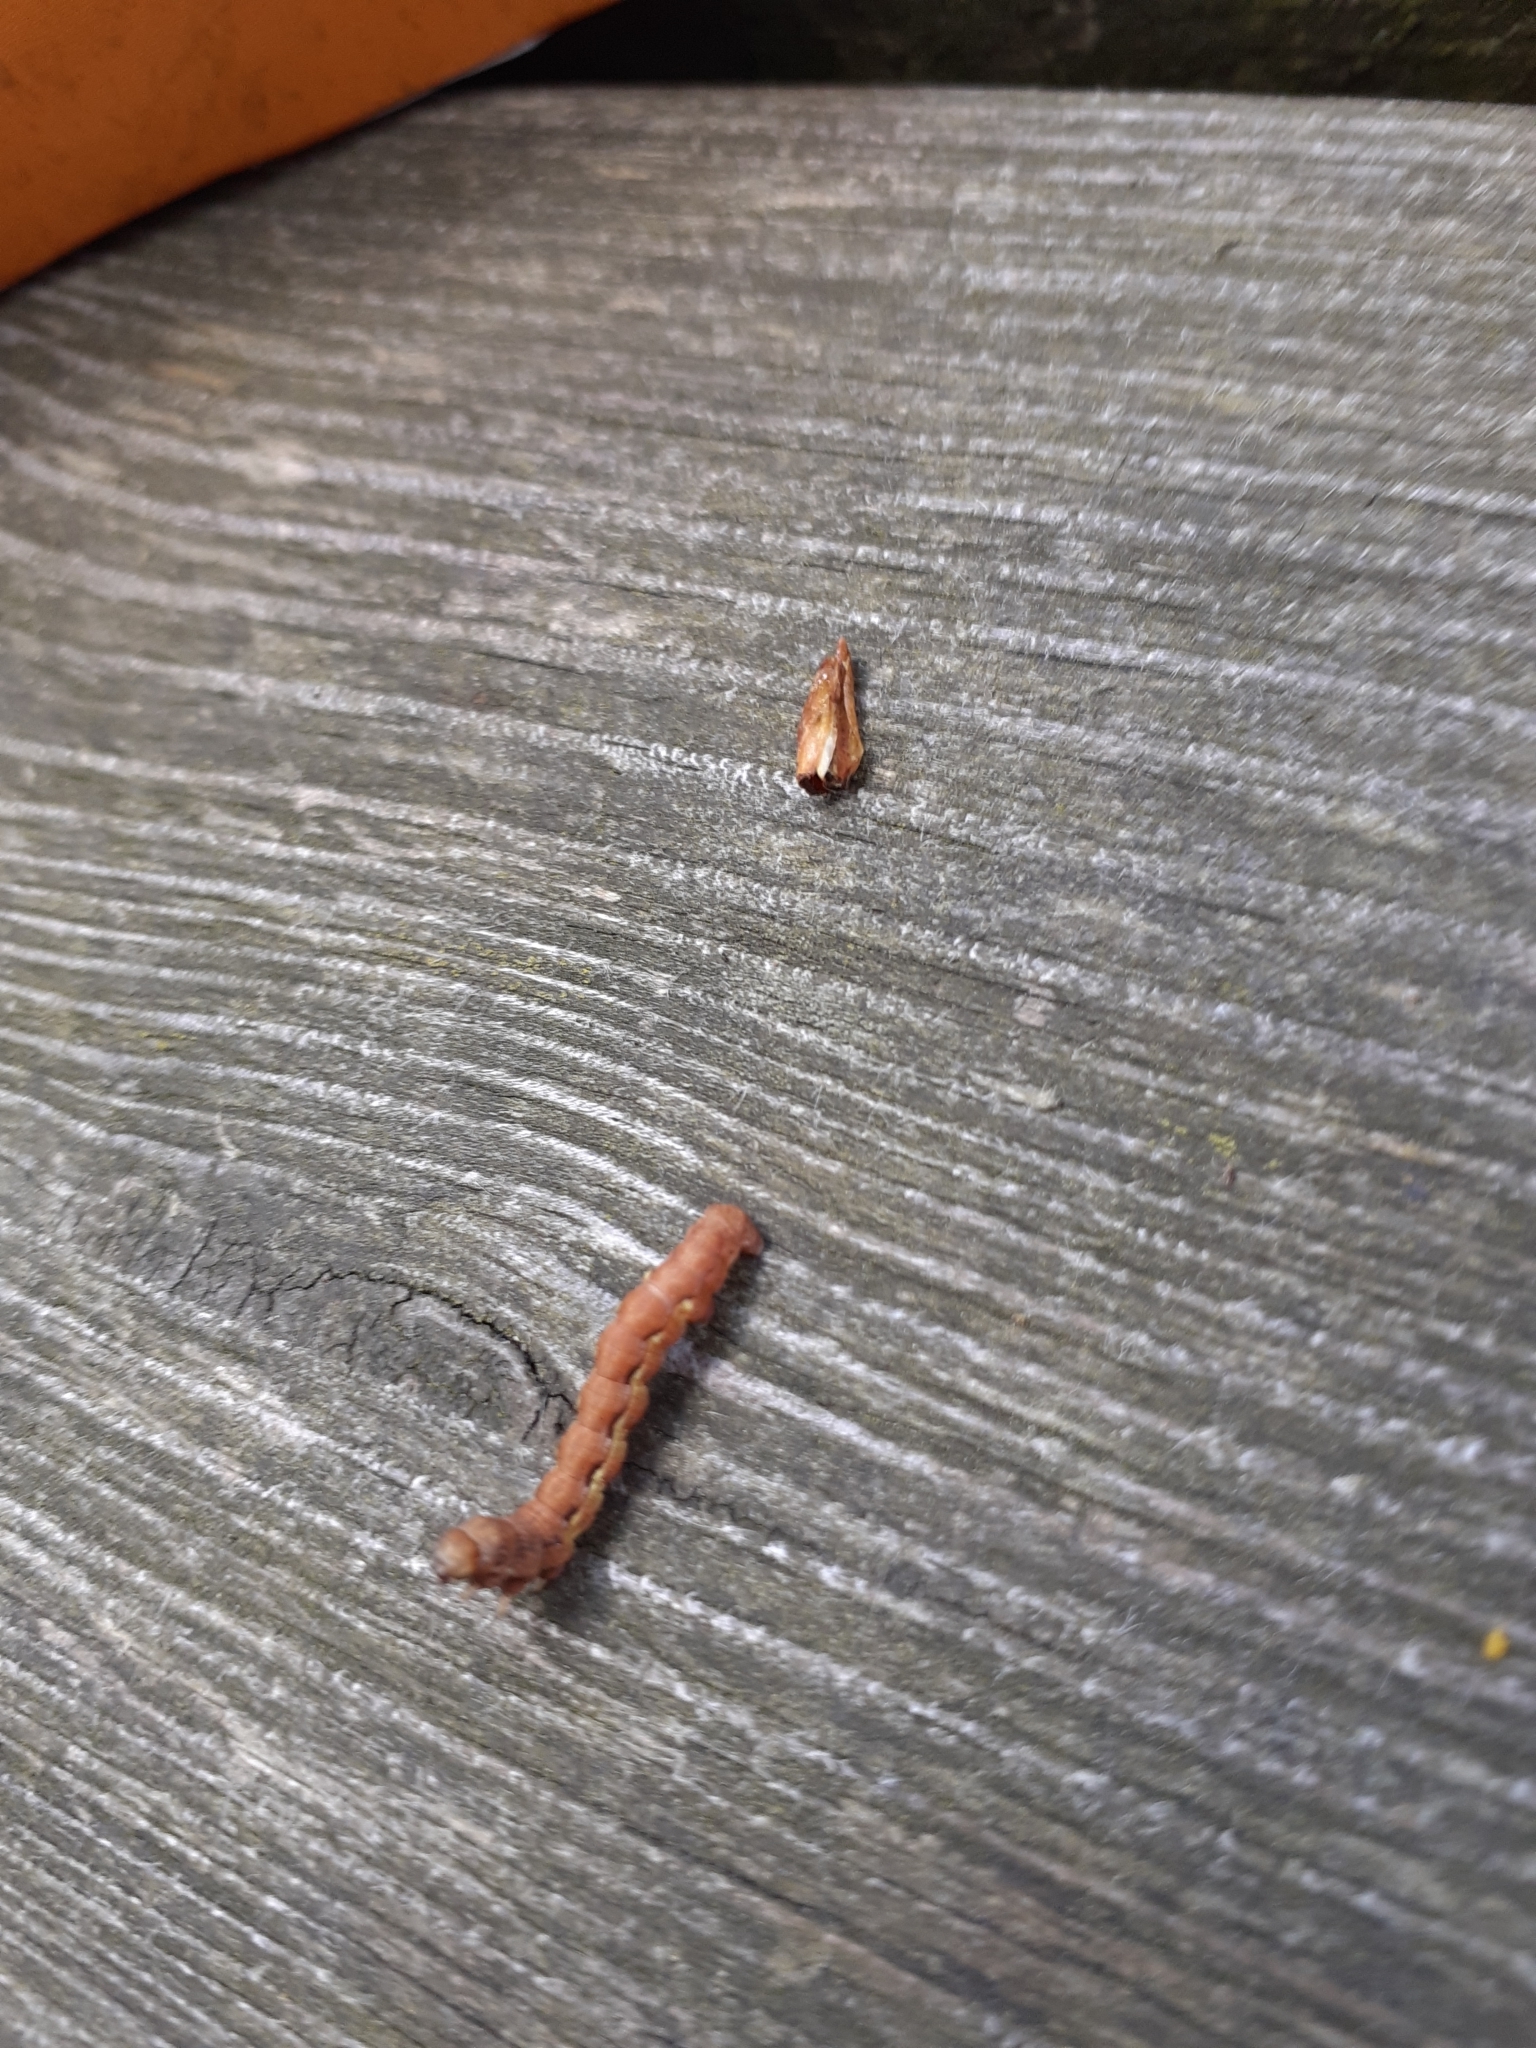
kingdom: Animalia
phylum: Arthropoda
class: Insecta
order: Lepidoptera
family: Geometridae
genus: Erannis
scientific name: Erannis defoliaria
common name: Mottled umber
